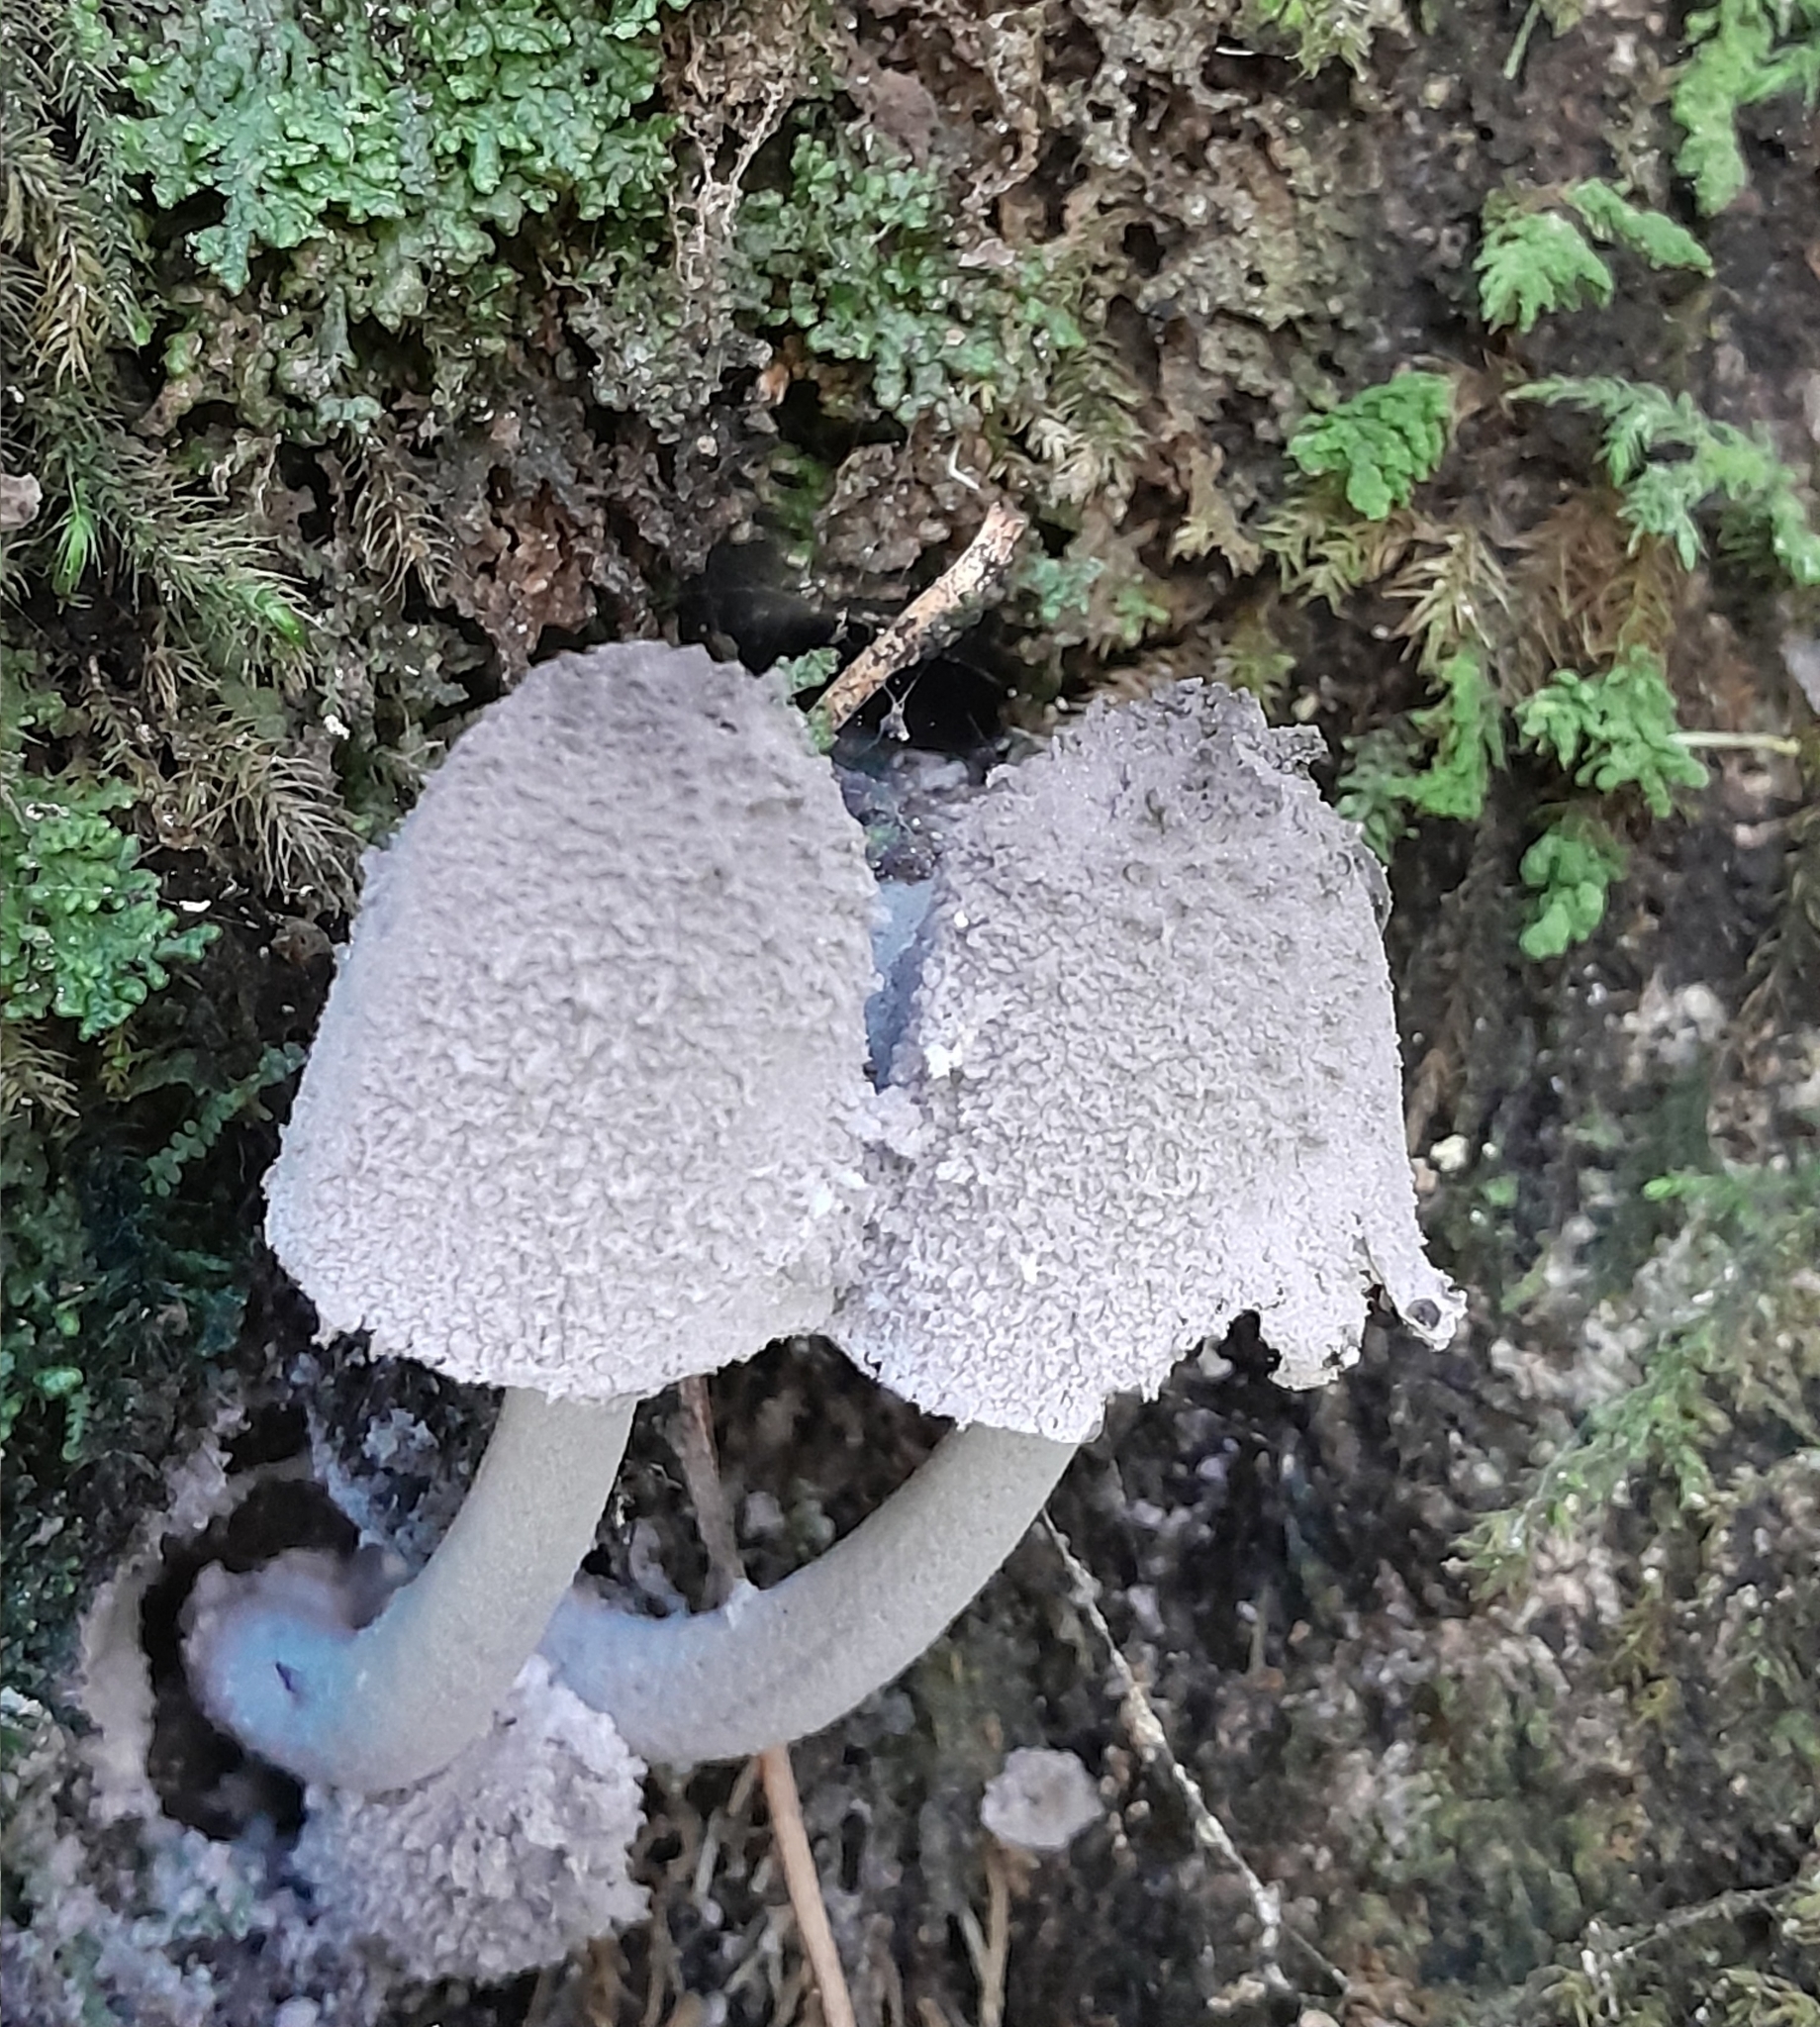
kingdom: Fungi
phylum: Basidiomycota
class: Agaricomycetes
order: Agaricales
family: Psathyrellaceae
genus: Coprinopsis
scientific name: Coprinopsis laanii
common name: Dotty inkcap
